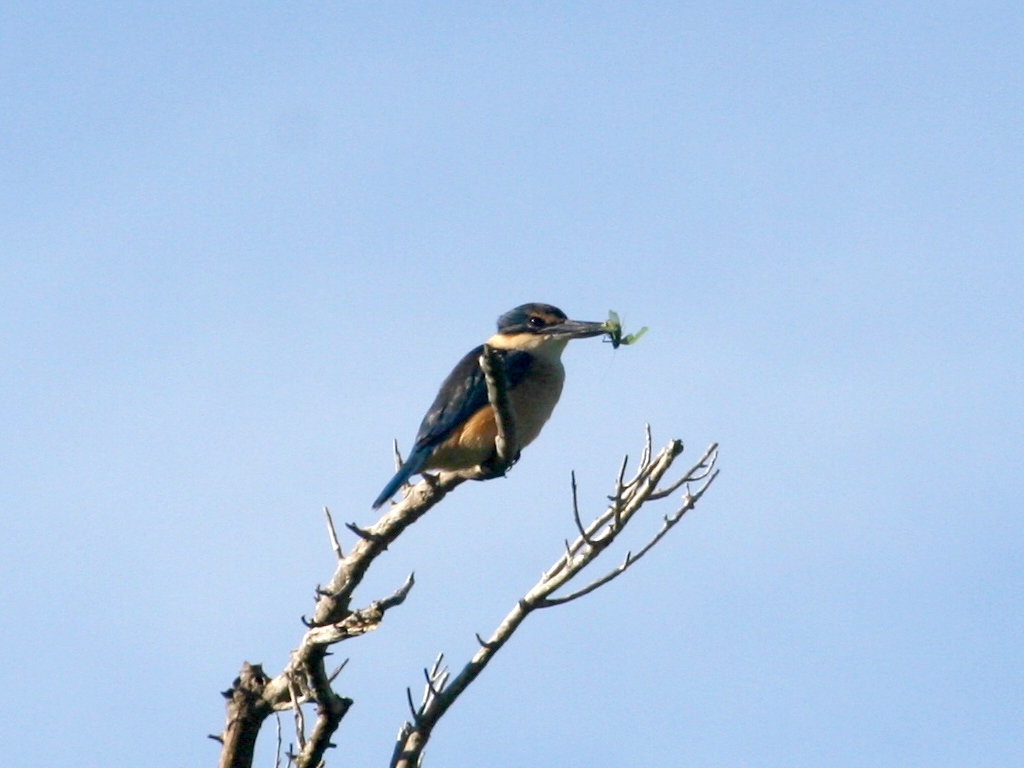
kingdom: Animalia
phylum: Arthropoda
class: Insecta
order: Orthoptera
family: Tettigoniidae
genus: Caedicia
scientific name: Caedicia simplex
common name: Common garden katydid
